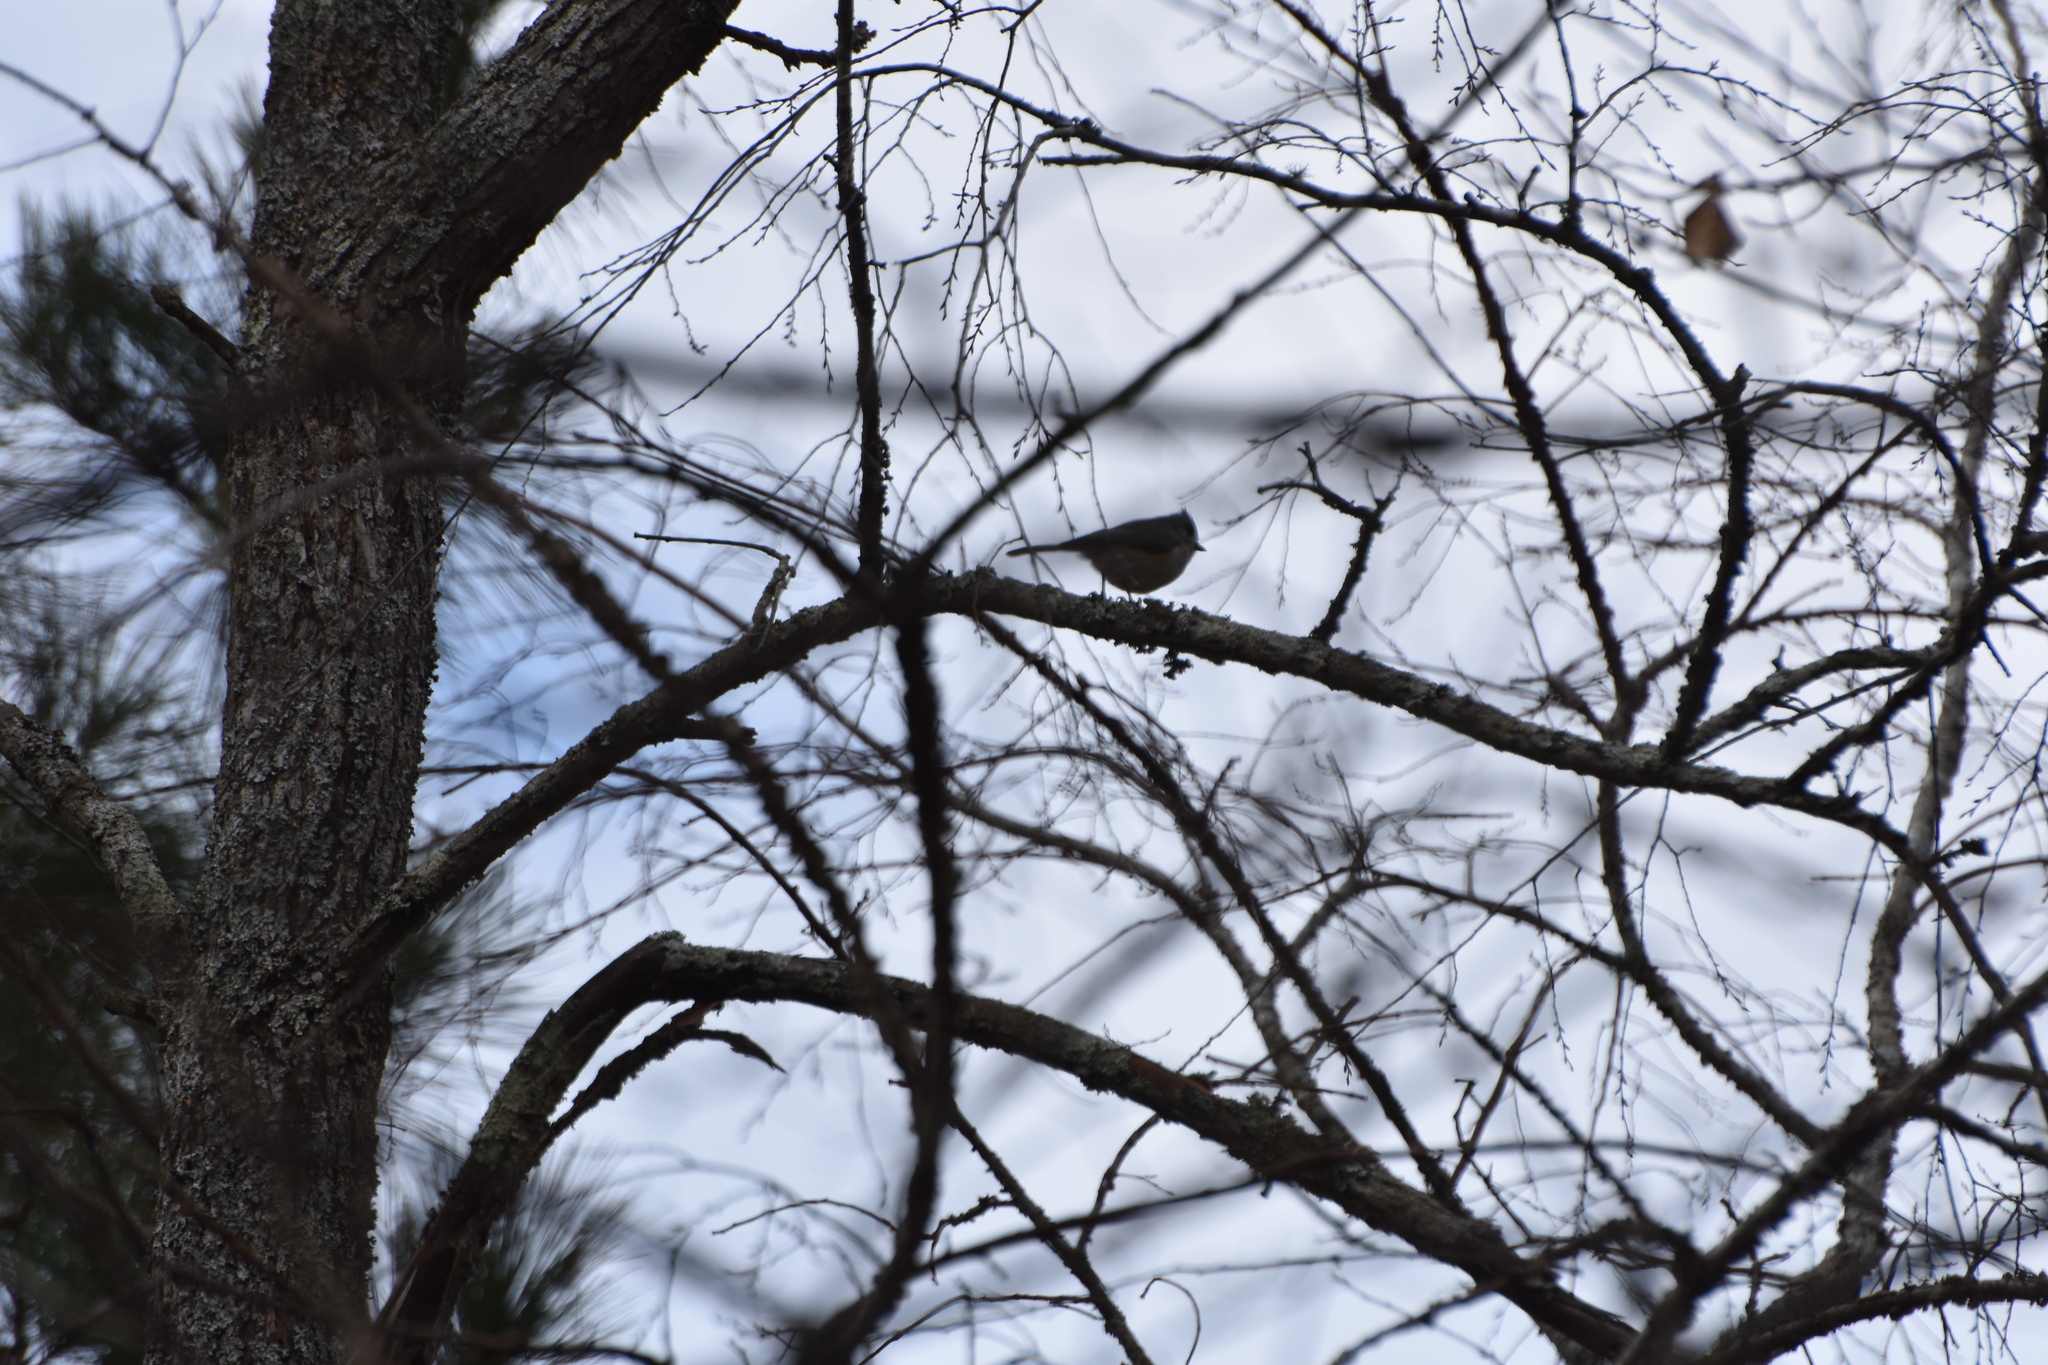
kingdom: Animalia
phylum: Chordata
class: Aves
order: Passeriformes
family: Paridae
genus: Baeolophus
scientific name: Baeolophus bicolor
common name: Tufted titmouse
